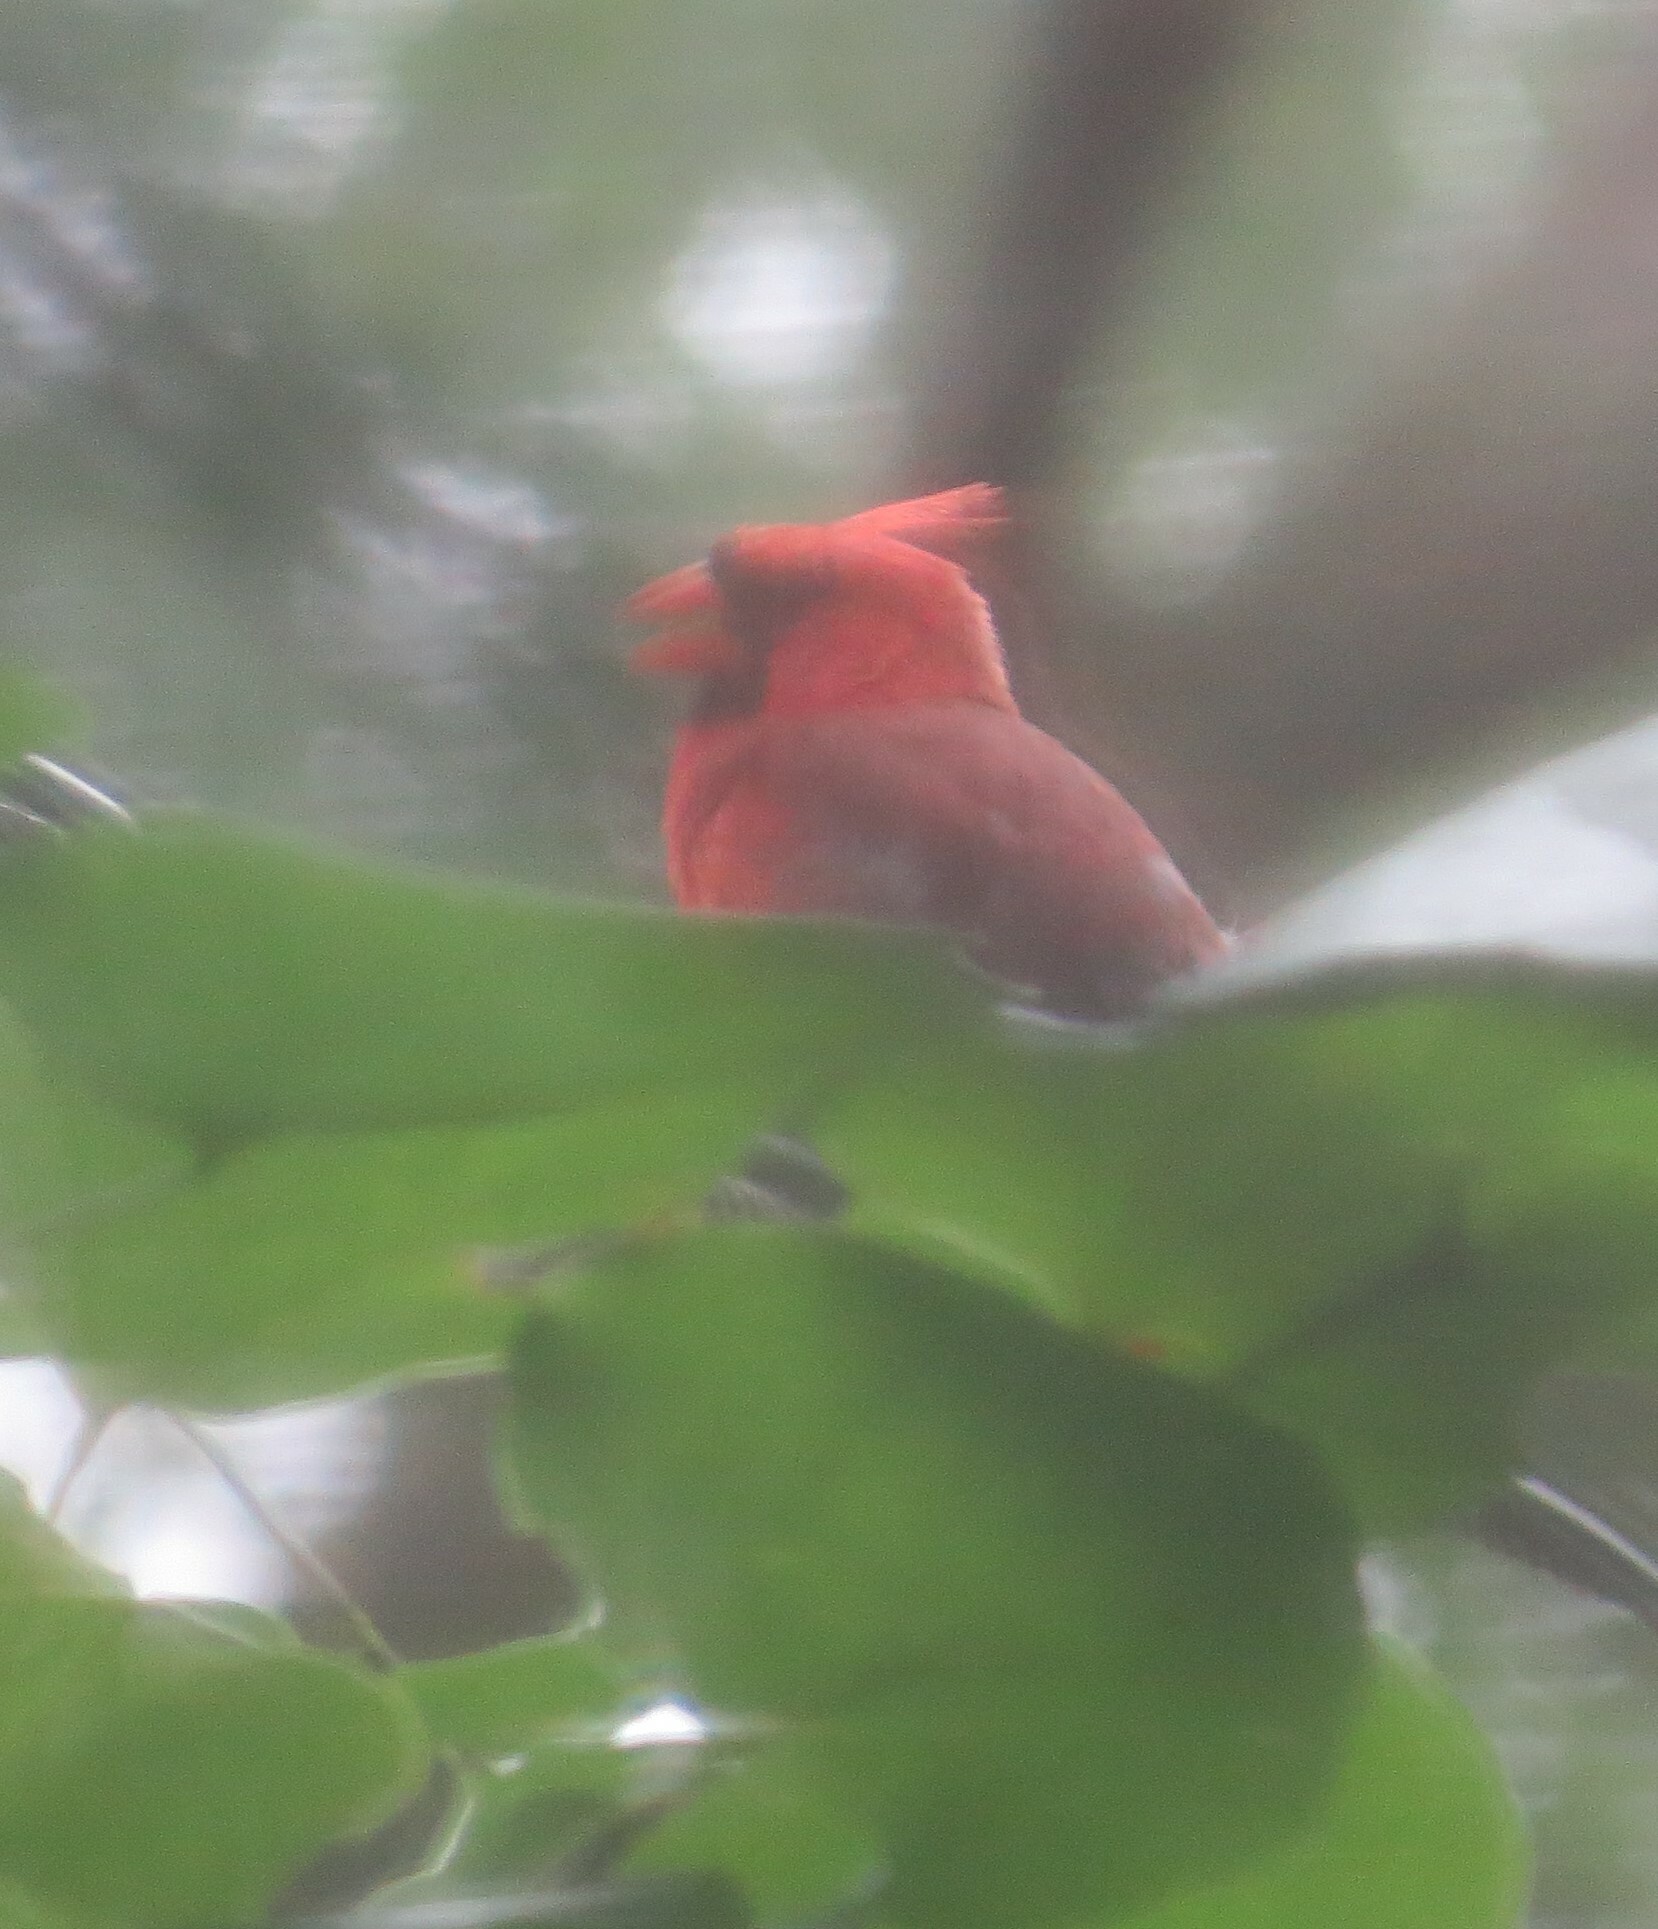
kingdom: Animalia
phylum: Chordata
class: Aves
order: Passeriformes
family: Cardinalidae
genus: Cardinalis
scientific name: Cardinalis cardinalis
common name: Northern cardinal
